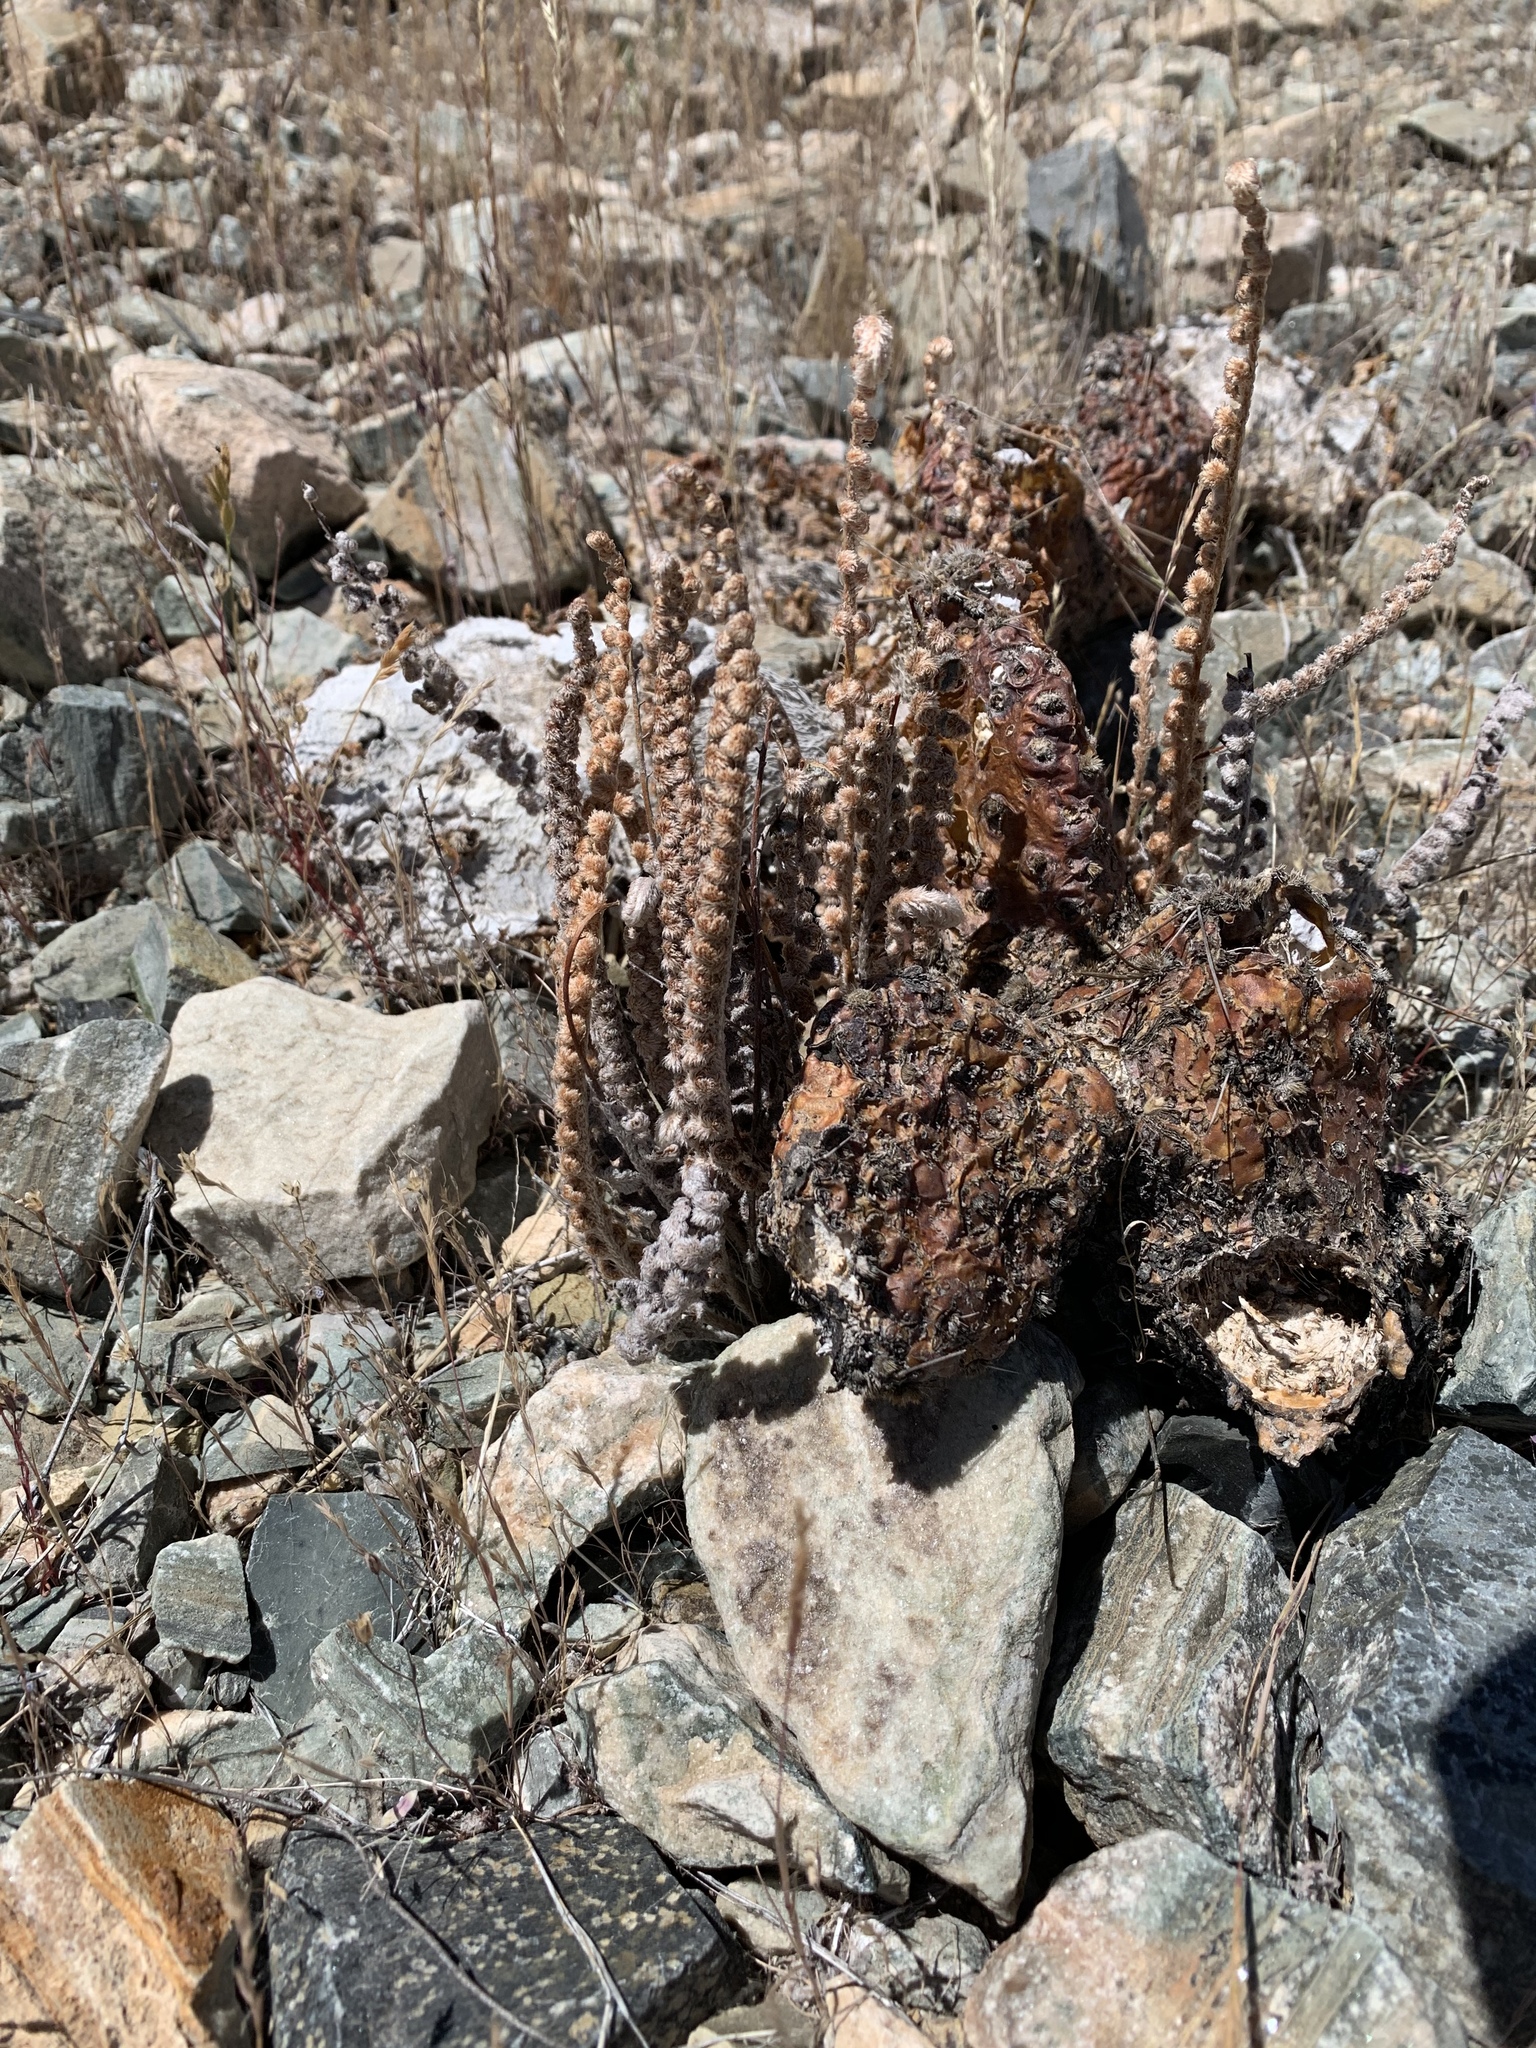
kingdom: Plantae
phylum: Tracheophyta
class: Polypodiopsida
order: Polypodiales
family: Pteridaceae
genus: Astrolepis
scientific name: Astrolepis integerrima
